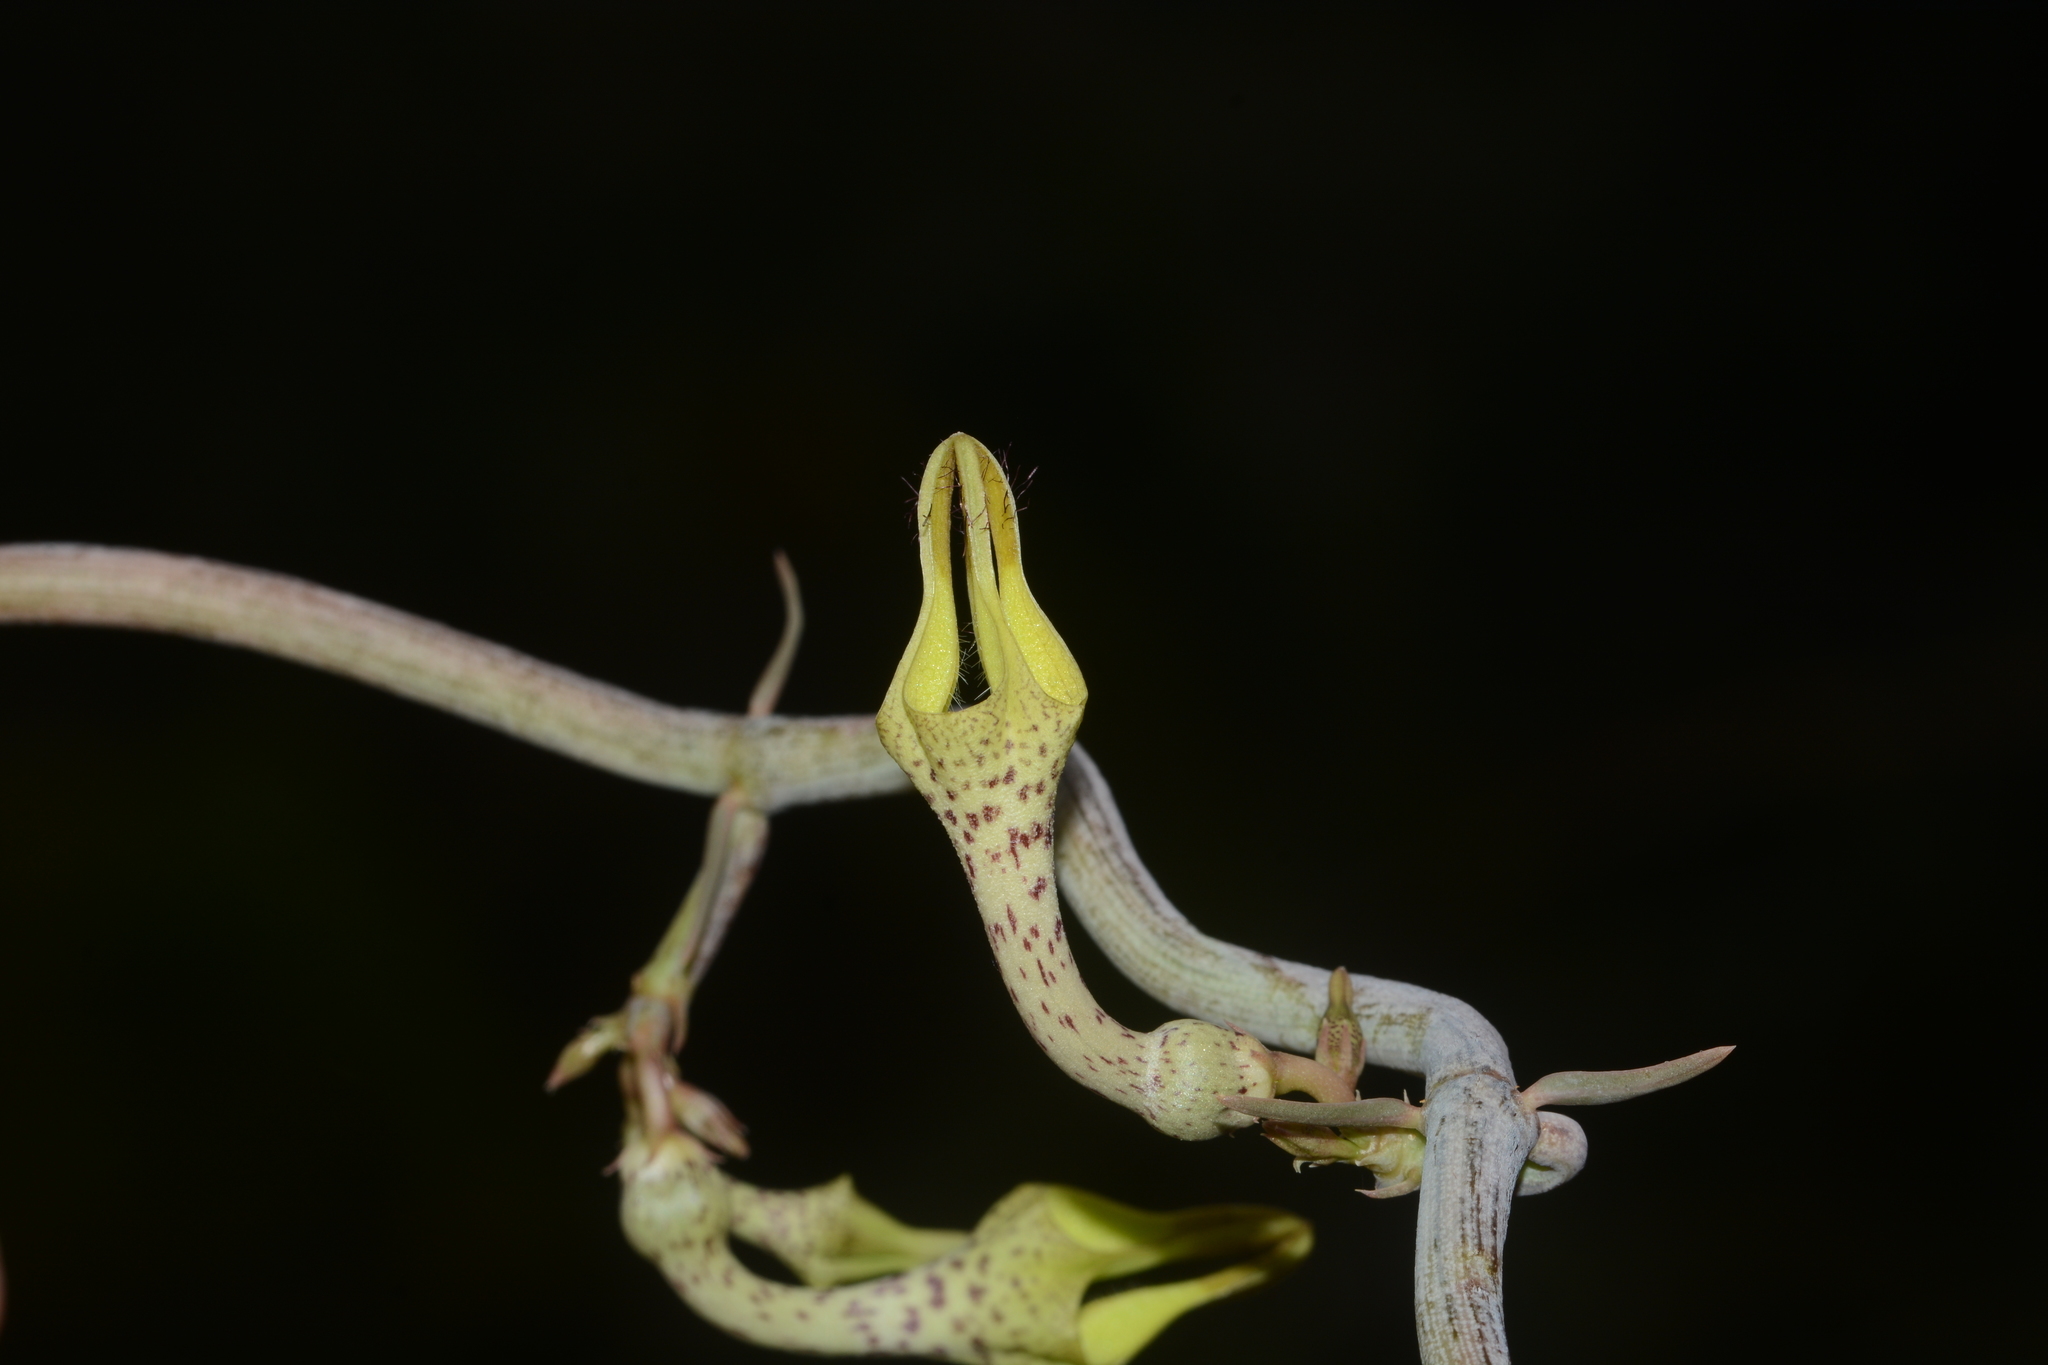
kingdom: Plantae
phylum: Tracheophyta
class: Magnoliopsida
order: Gentianales
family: Apocynaceae
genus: Ceropegia
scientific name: Ceropegia juncea
